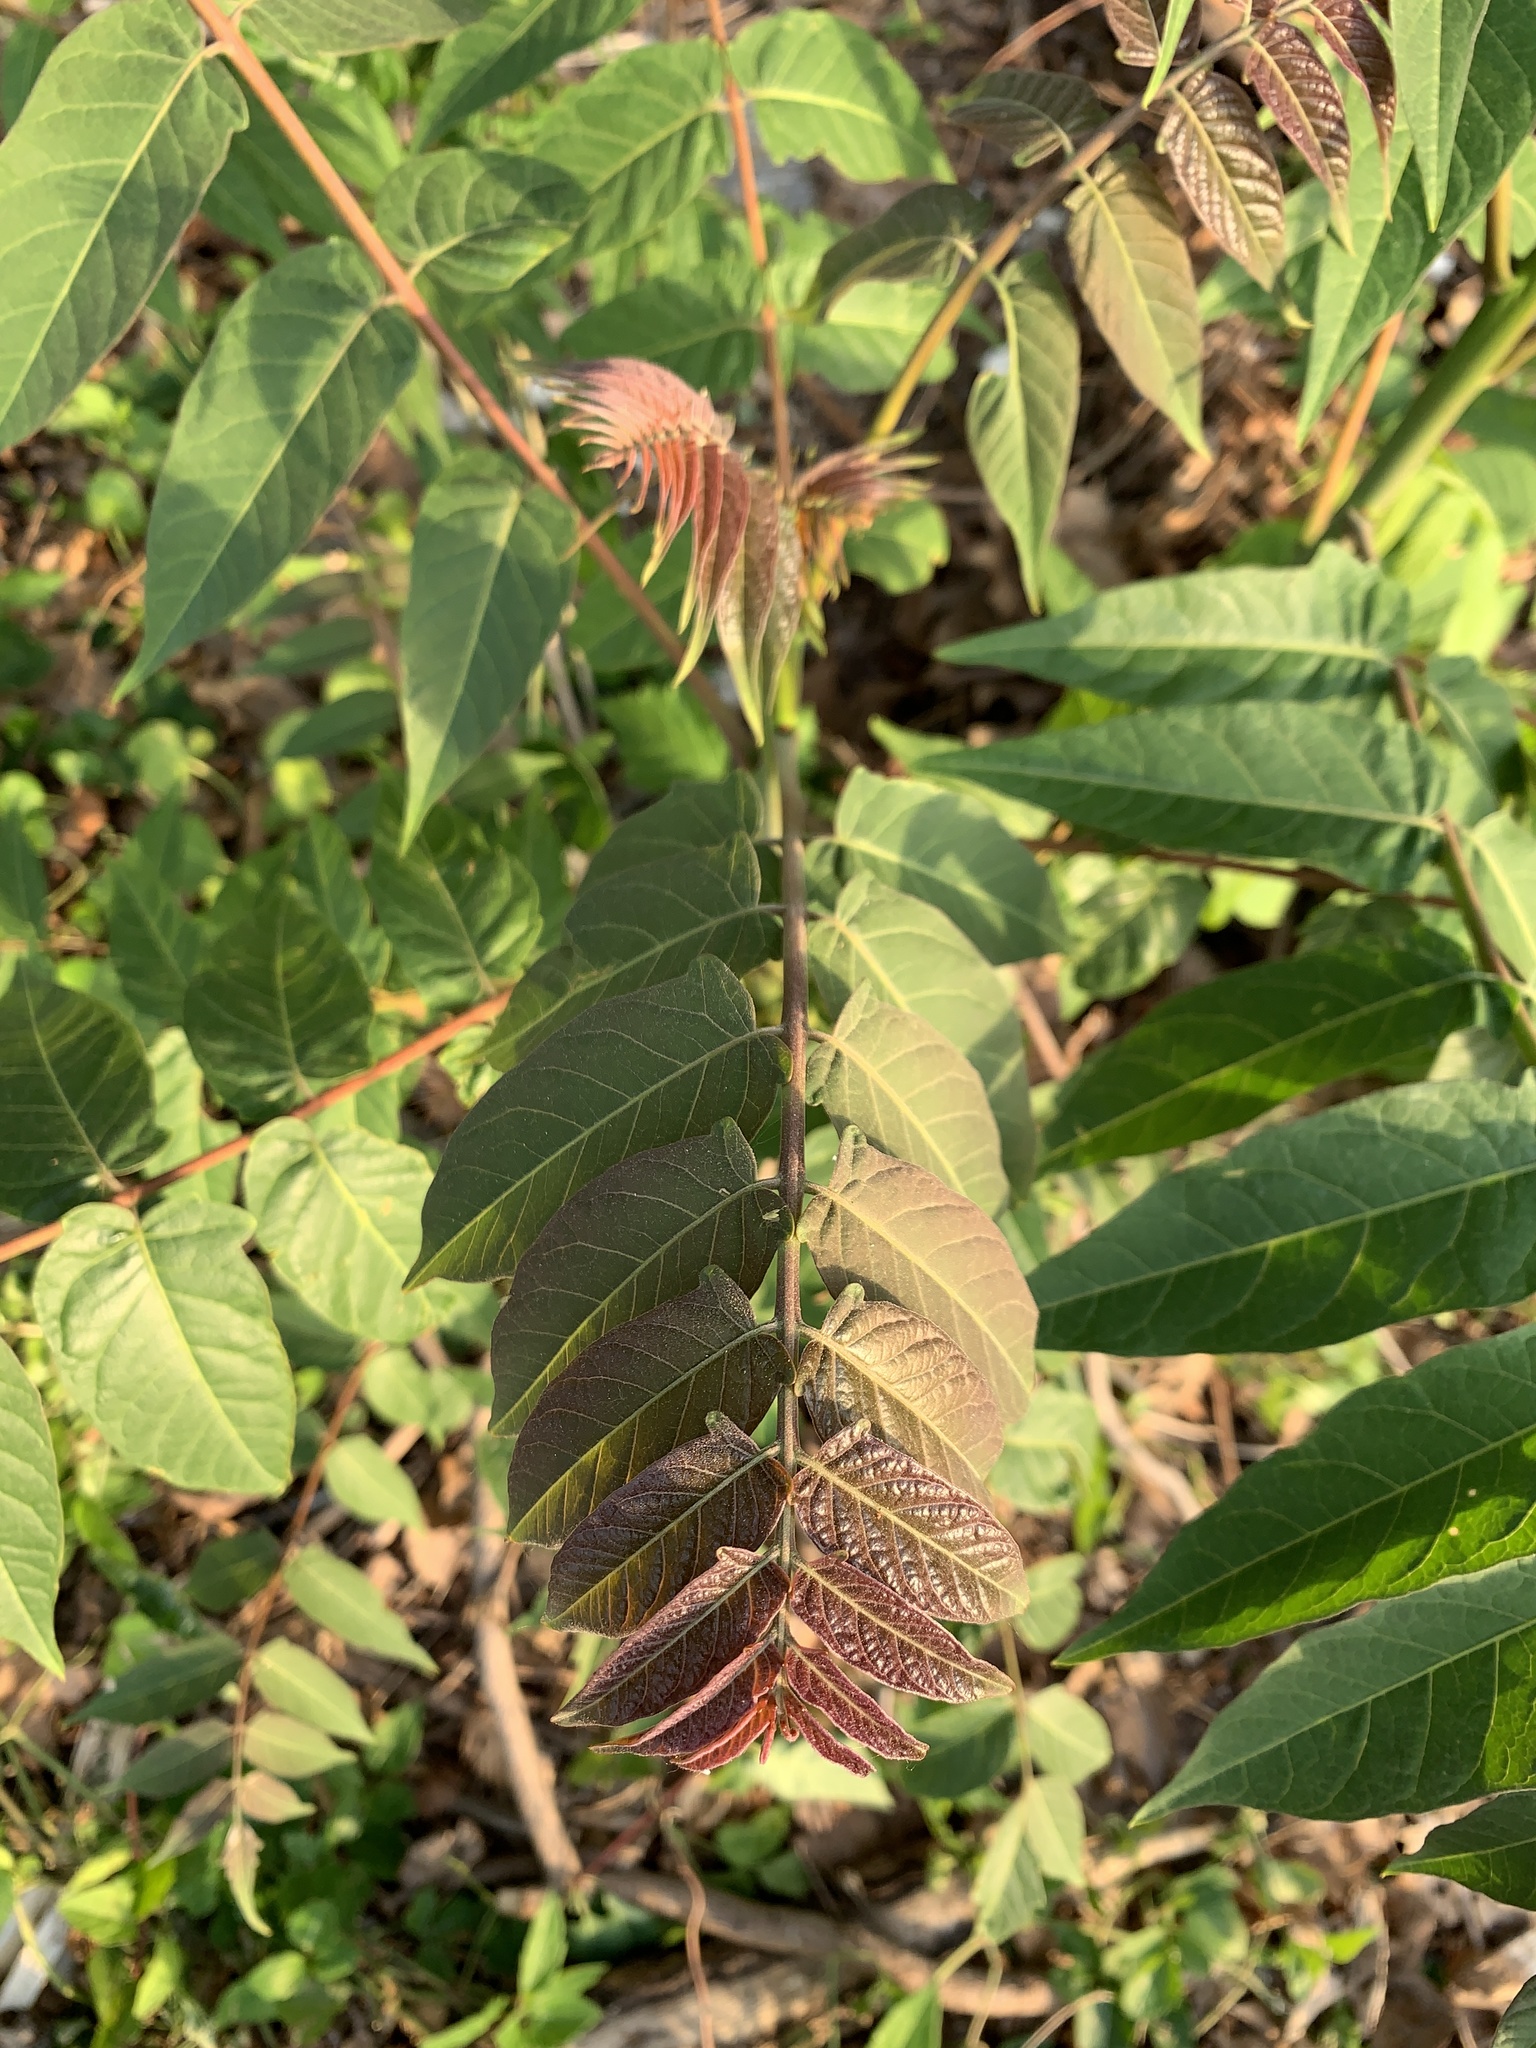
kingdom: Plantae
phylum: Tracheophyta
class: Magnoliopsida
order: Sapindales
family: Simaroubaceae
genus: Ailanthus
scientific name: Ailanthus altissima
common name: Tree-of-heaven
